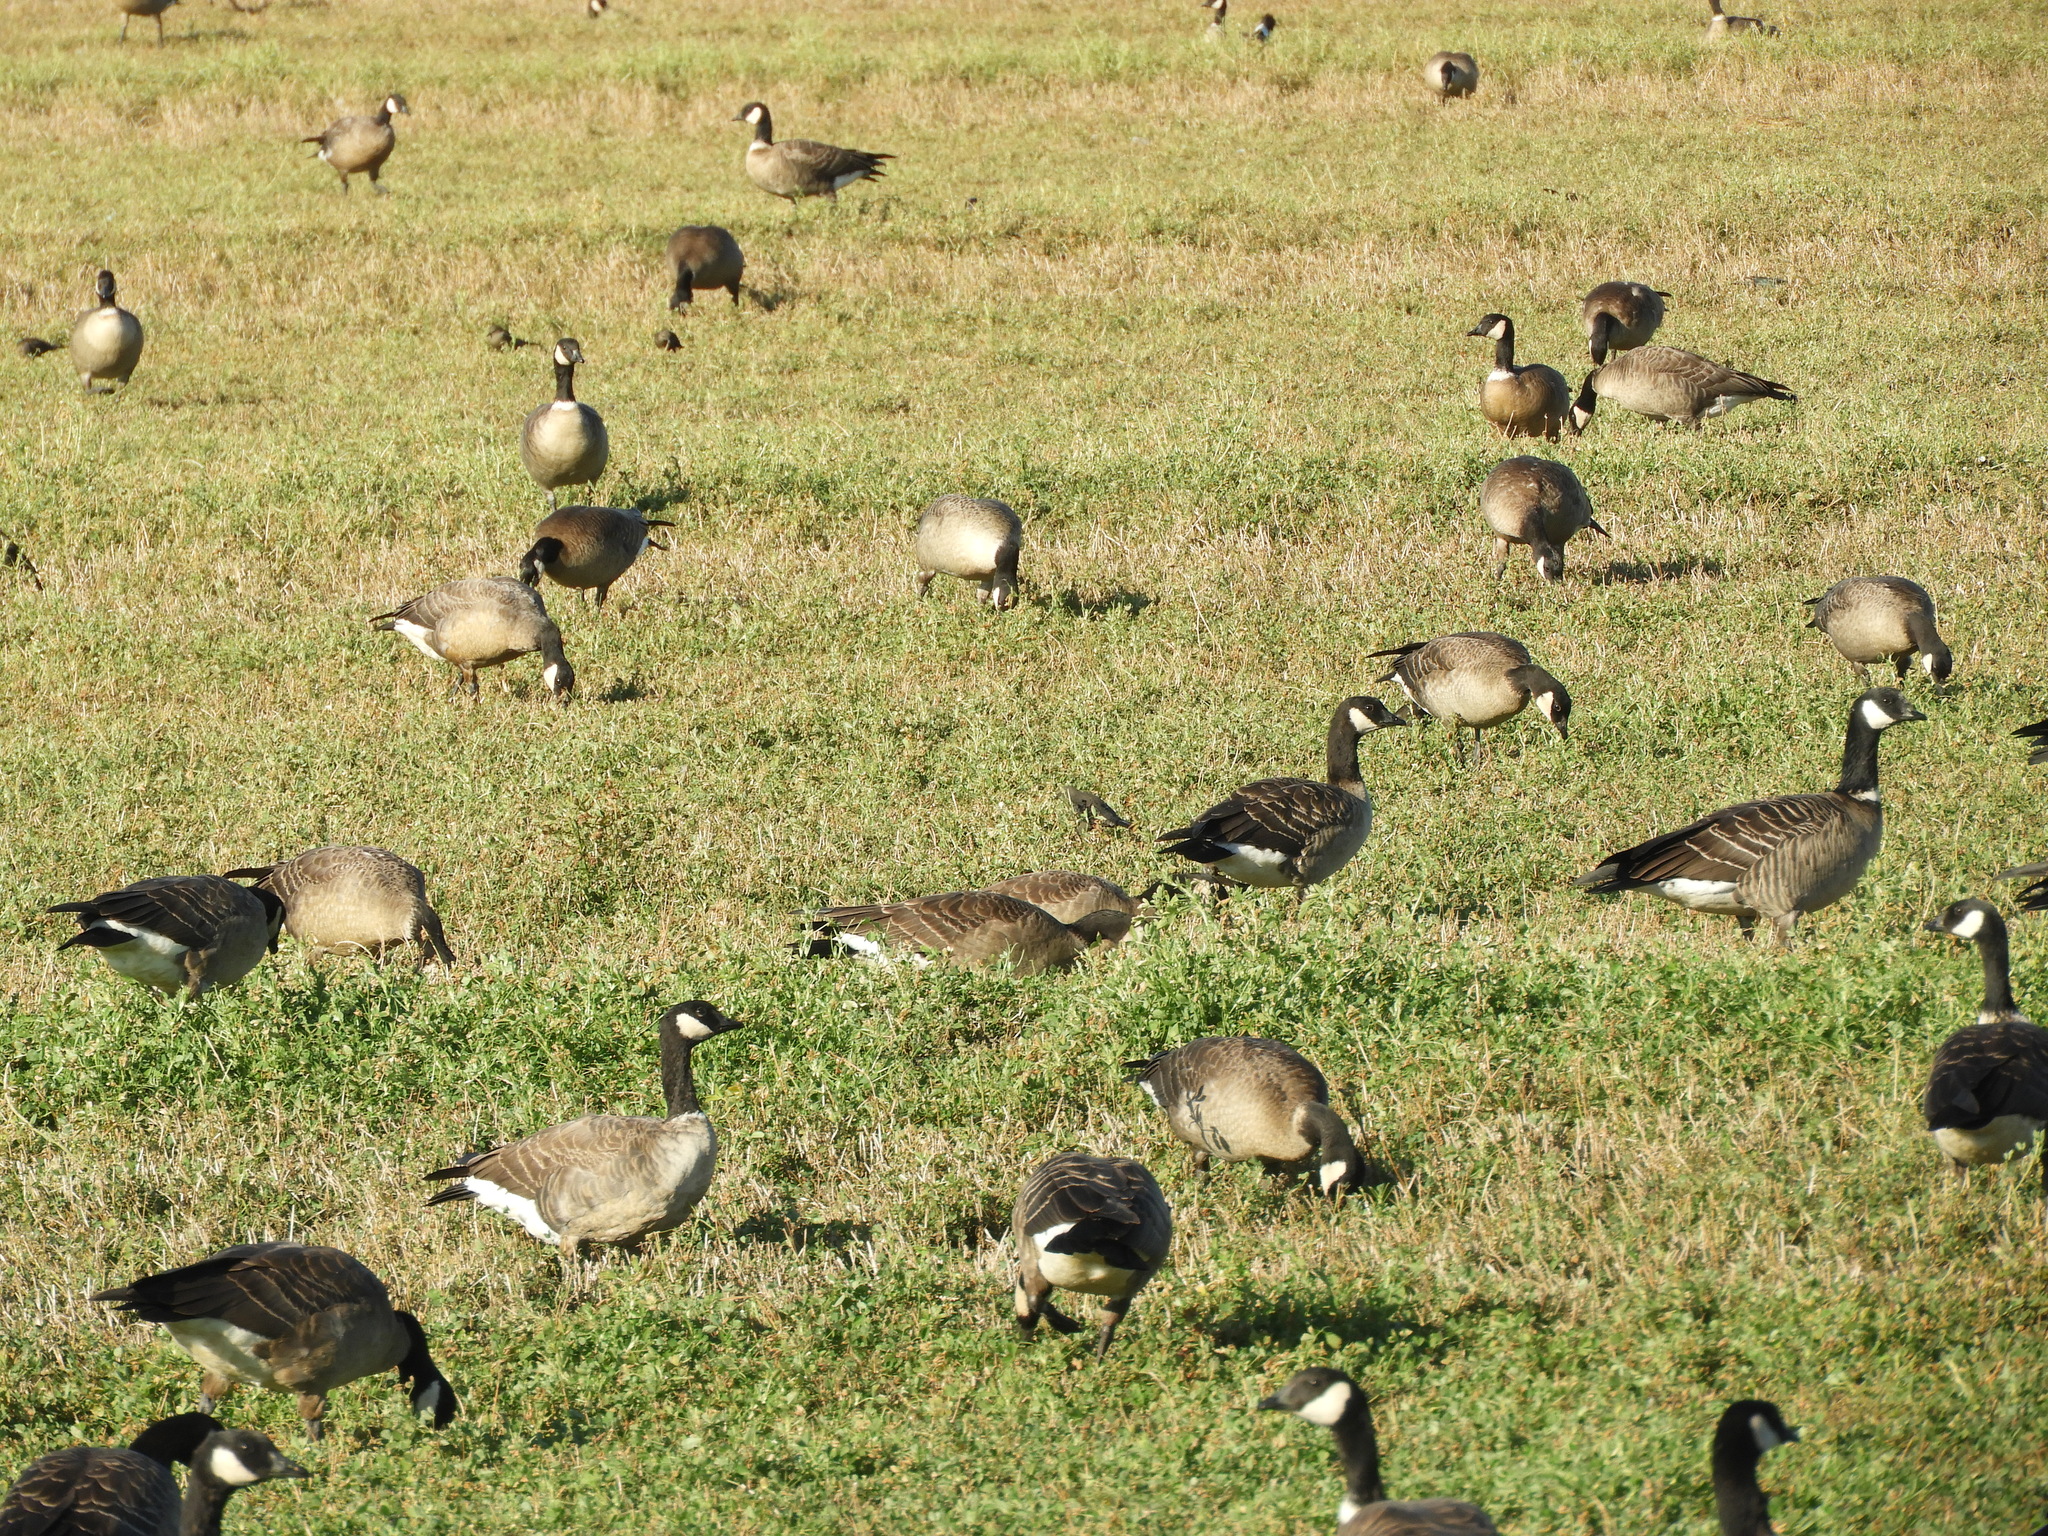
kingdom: Animalia
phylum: Chordata
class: Aves
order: Anseriformes
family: Anatidae
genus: Branta
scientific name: Branta hutchinsii
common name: Cackling goose
